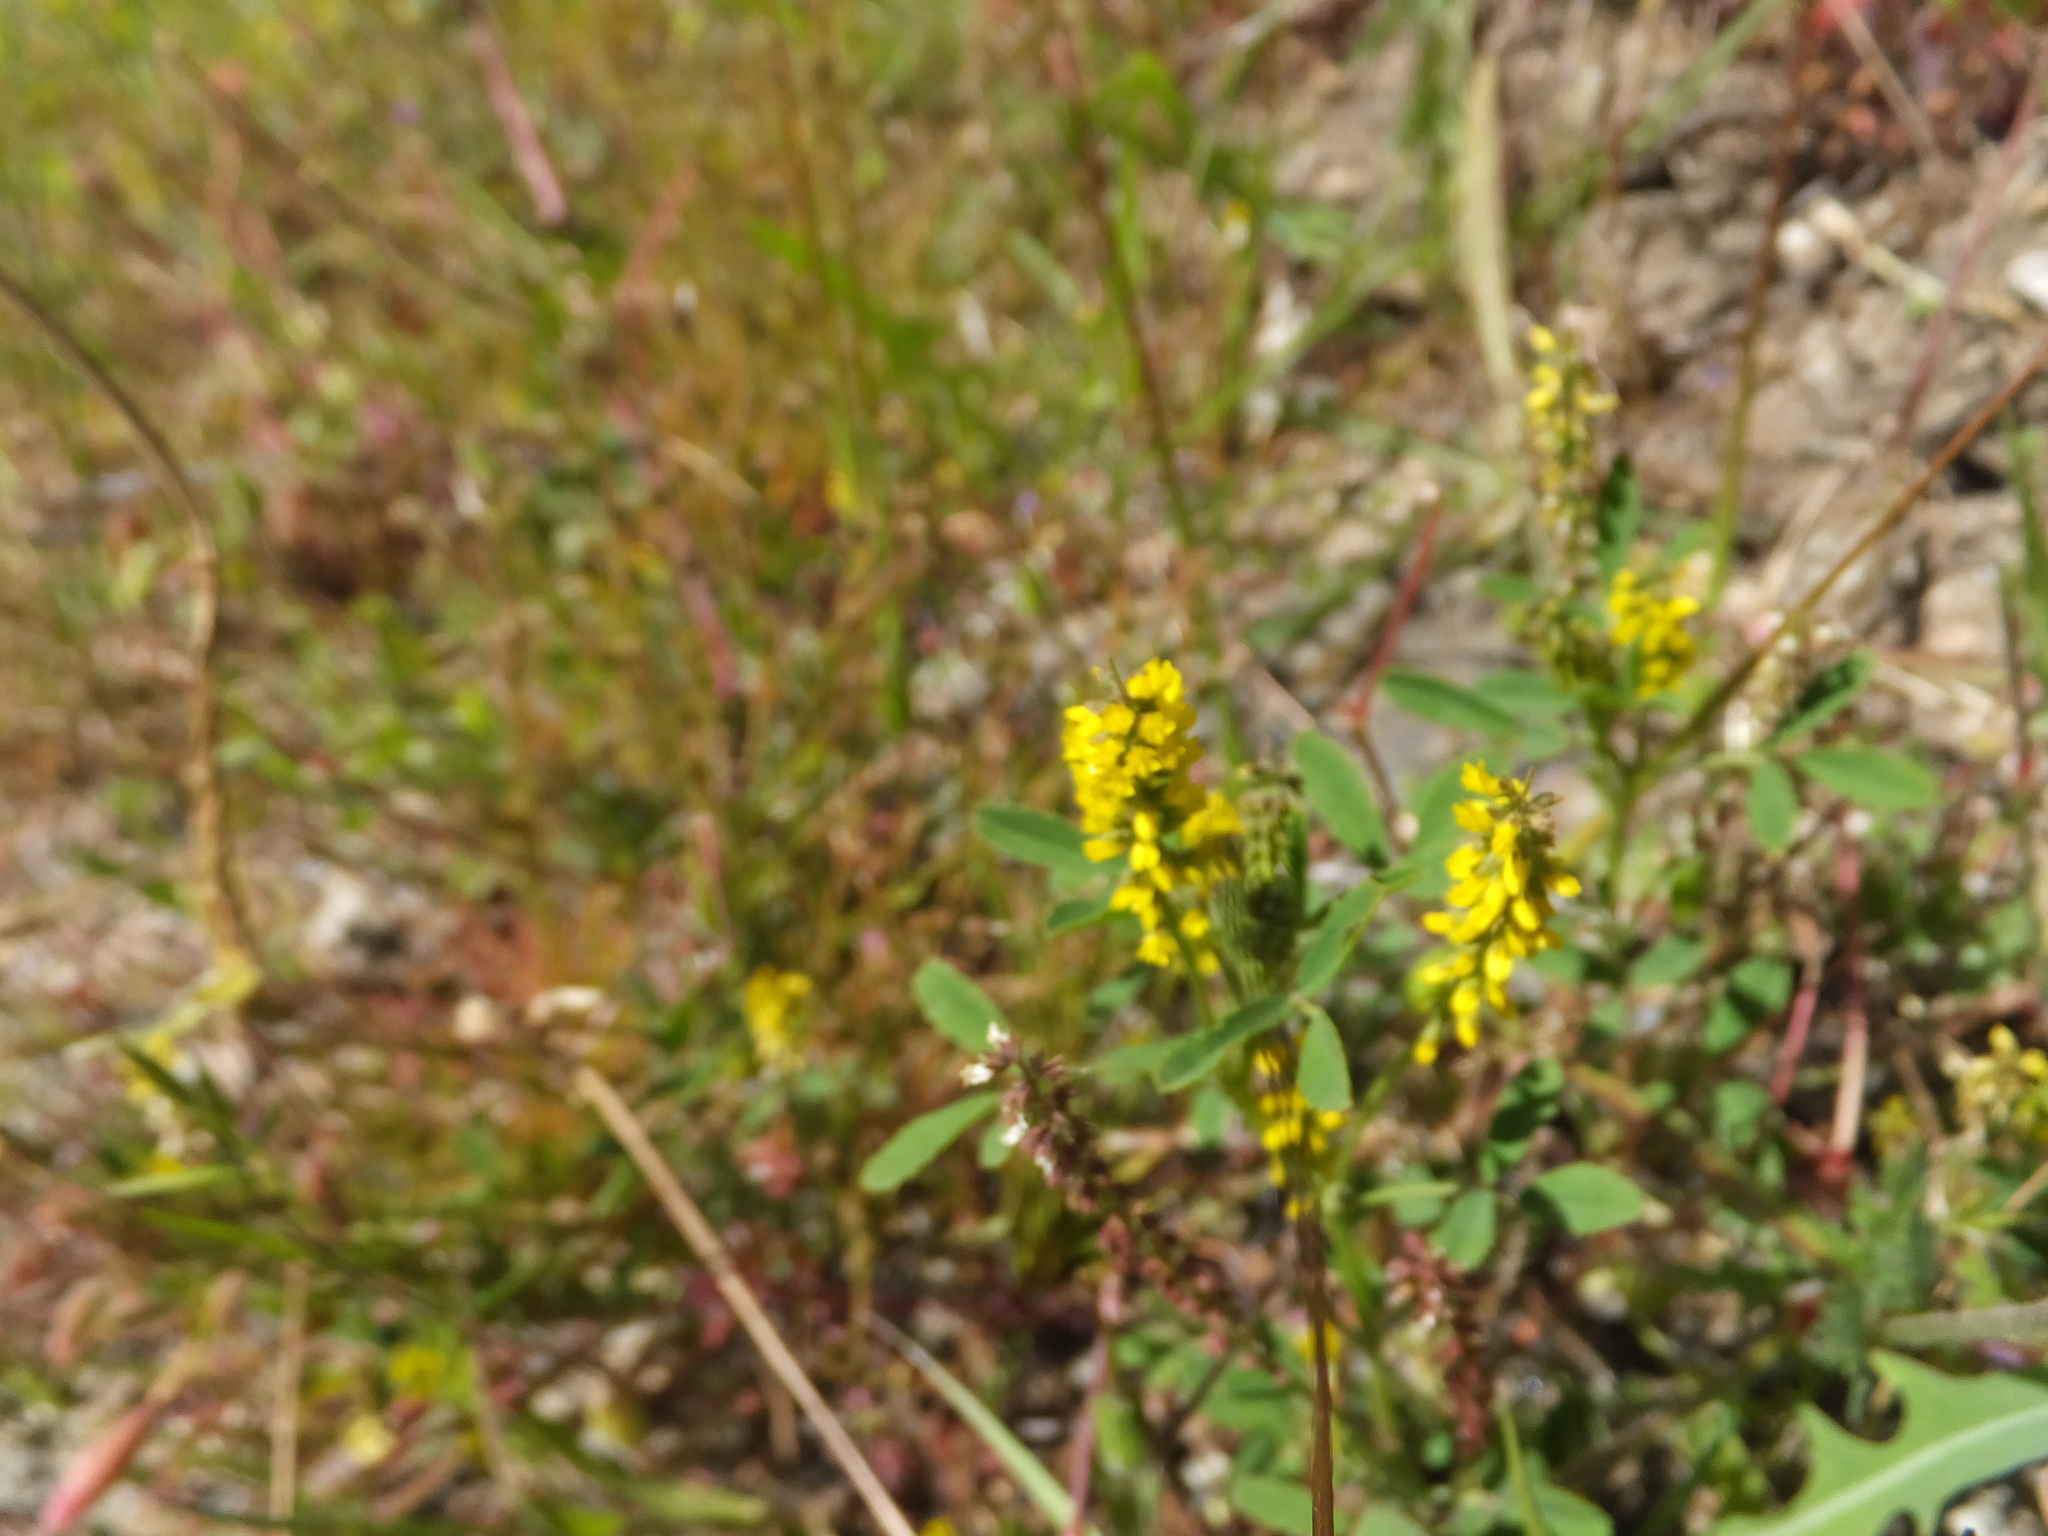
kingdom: Plantae
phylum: Tracheophyta
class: Magnoliopsida
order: Fabales
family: Fabaceae
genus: Melilotus
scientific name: Melilotus indicus
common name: Small melilot
